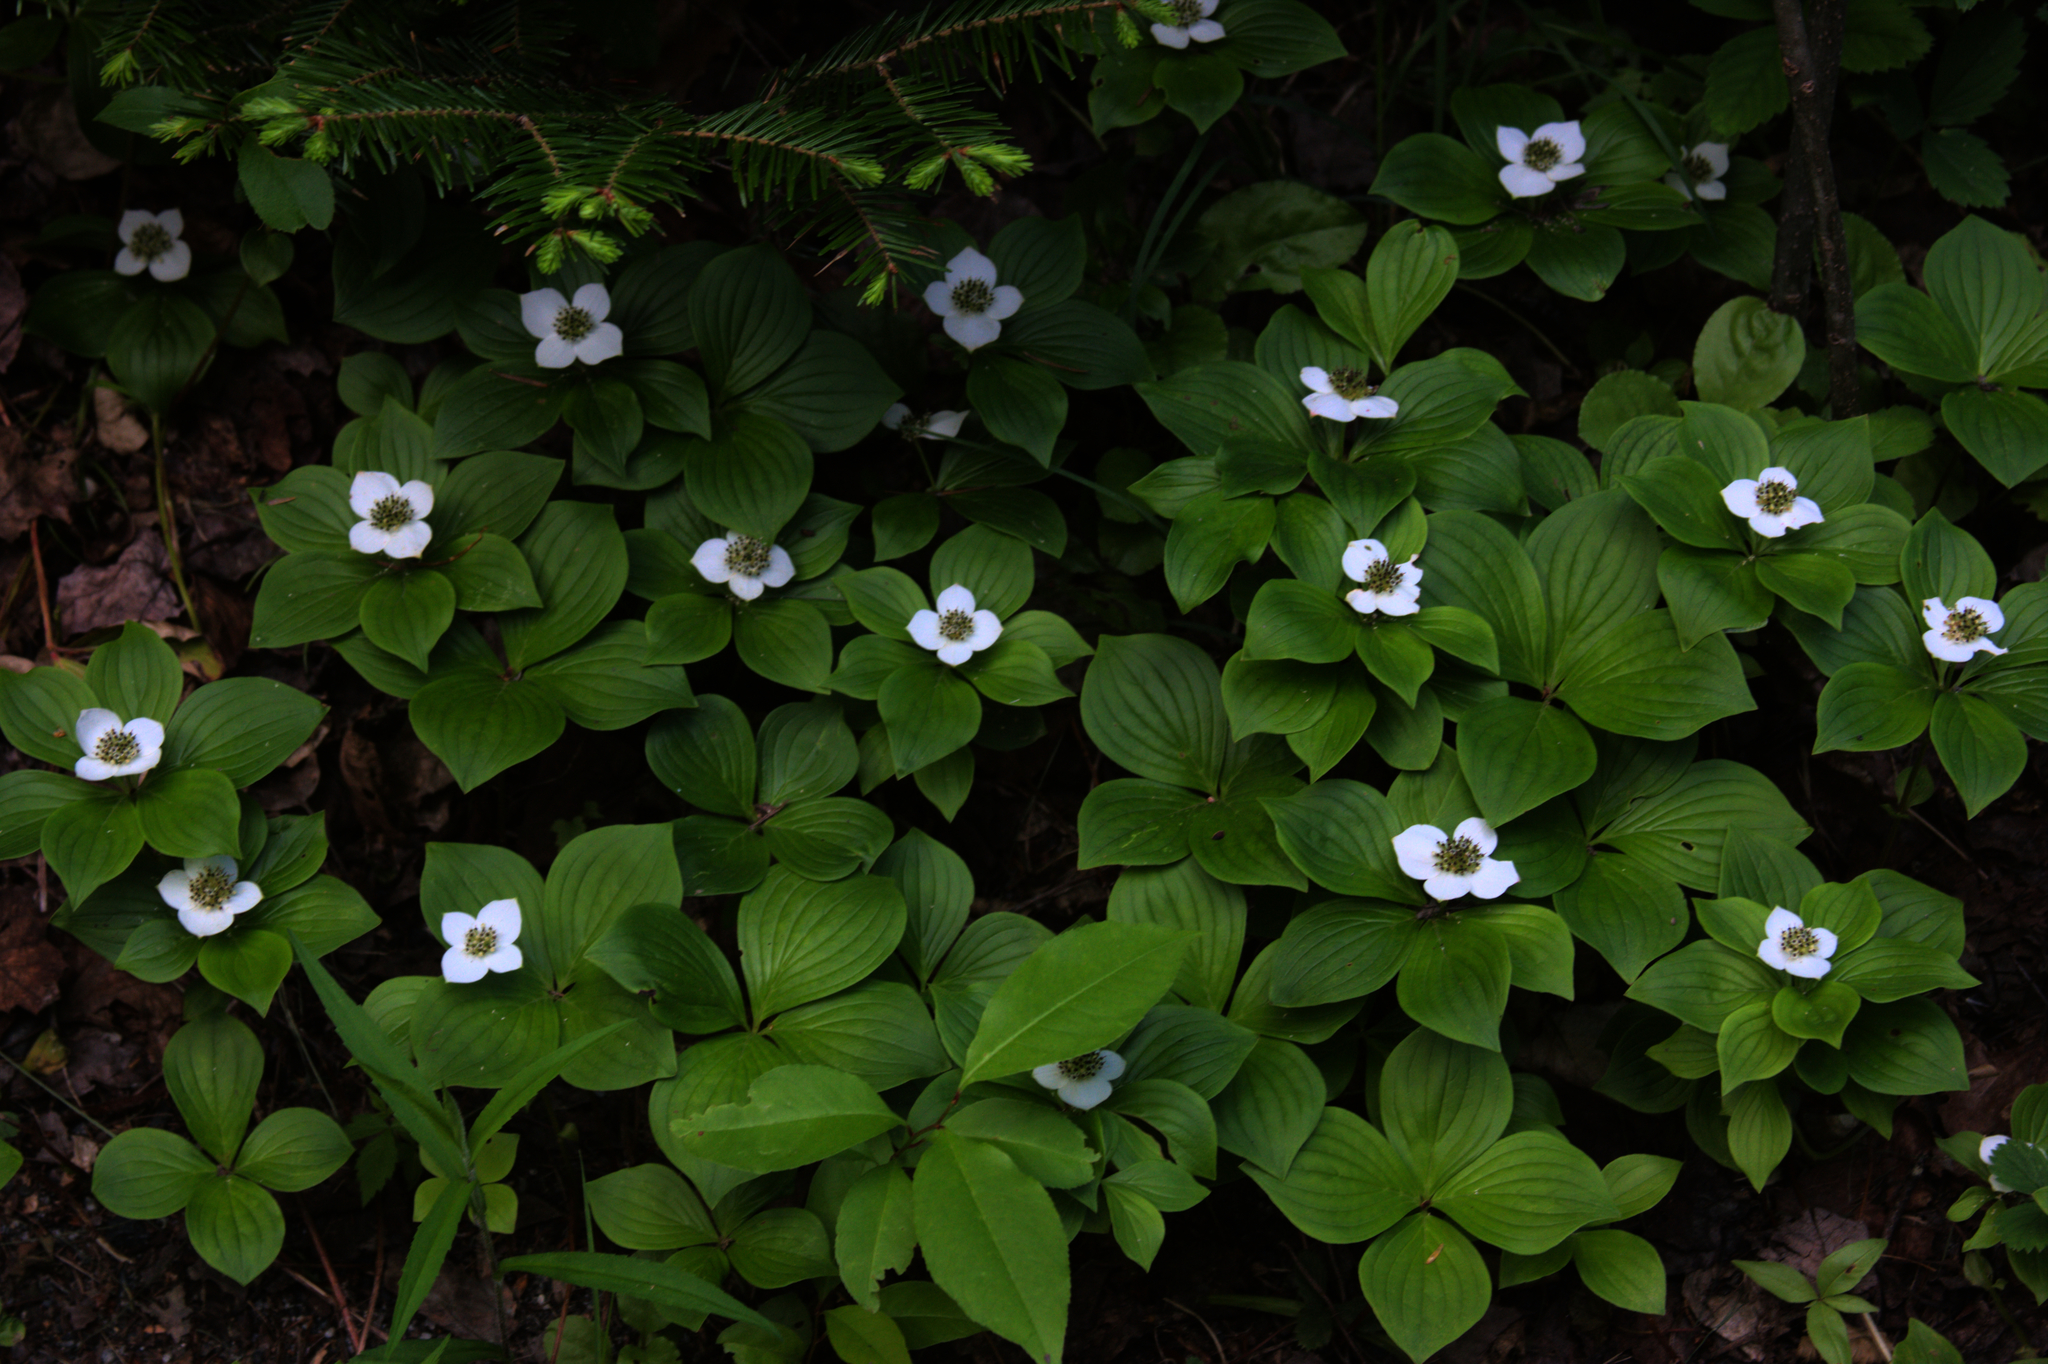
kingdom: Plantae
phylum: Tracheophyta
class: Magnoliopsida
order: Cornales
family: Cornaceae
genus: Cornus
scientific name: Cornus canadensis
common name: Creeping dogwood
